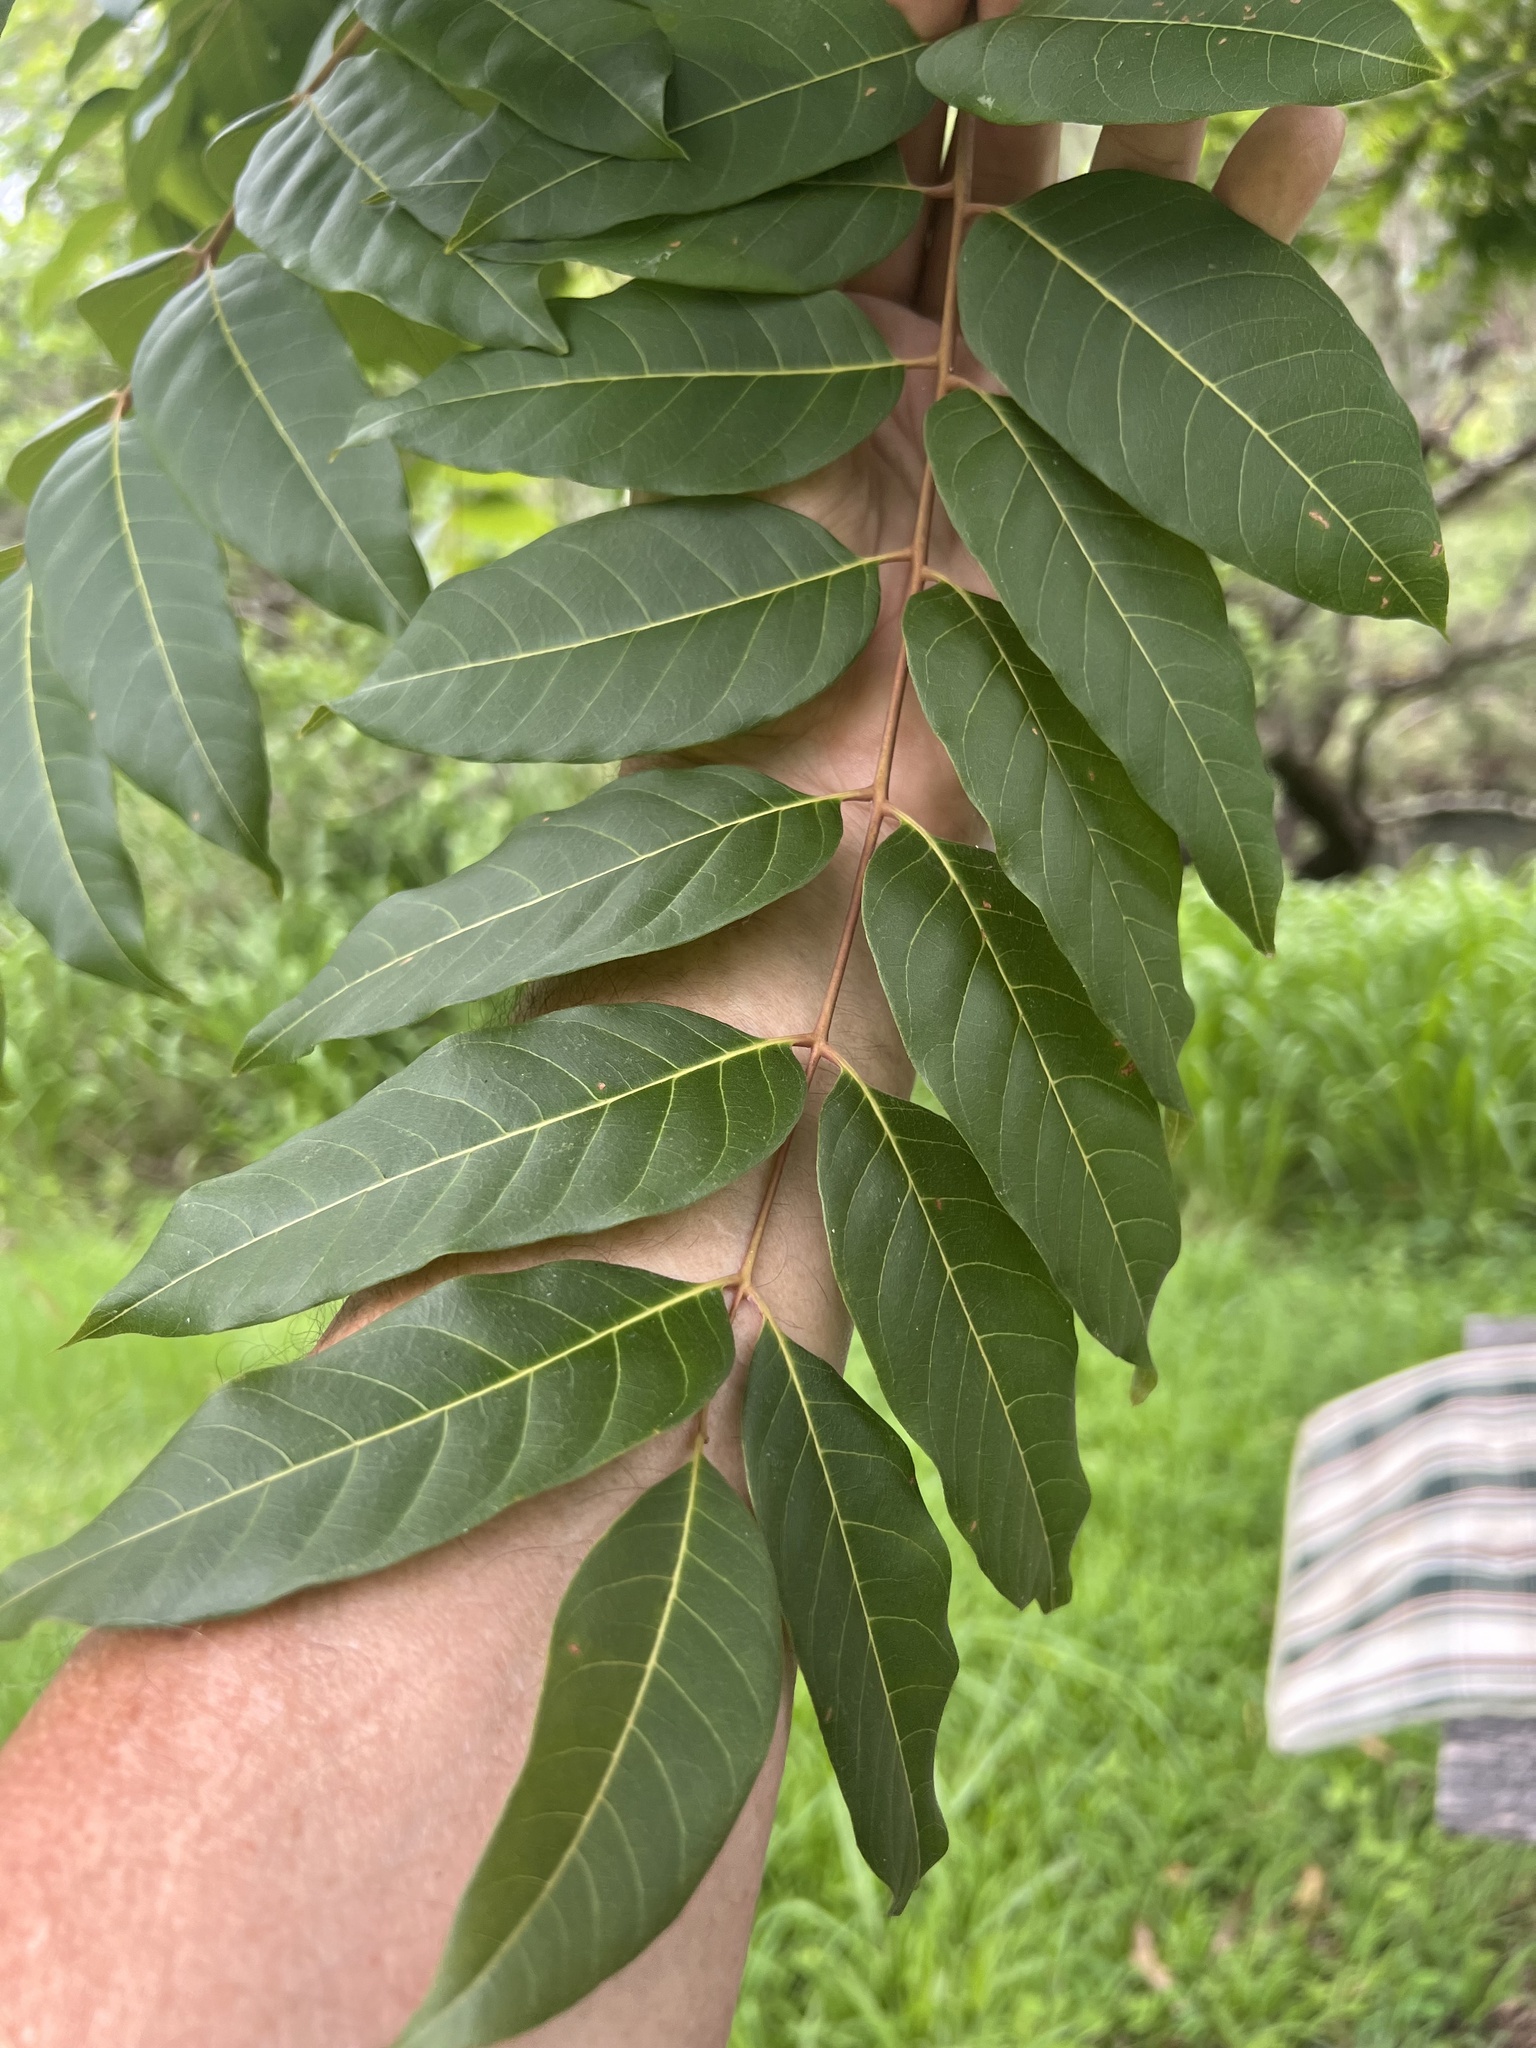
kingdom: Plantae
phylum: Tracheophyta
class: Magnoliopsida
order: Sapindales
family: Meliaceae
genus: Toona
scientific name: Toona ciliata
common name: Australian redcedar
